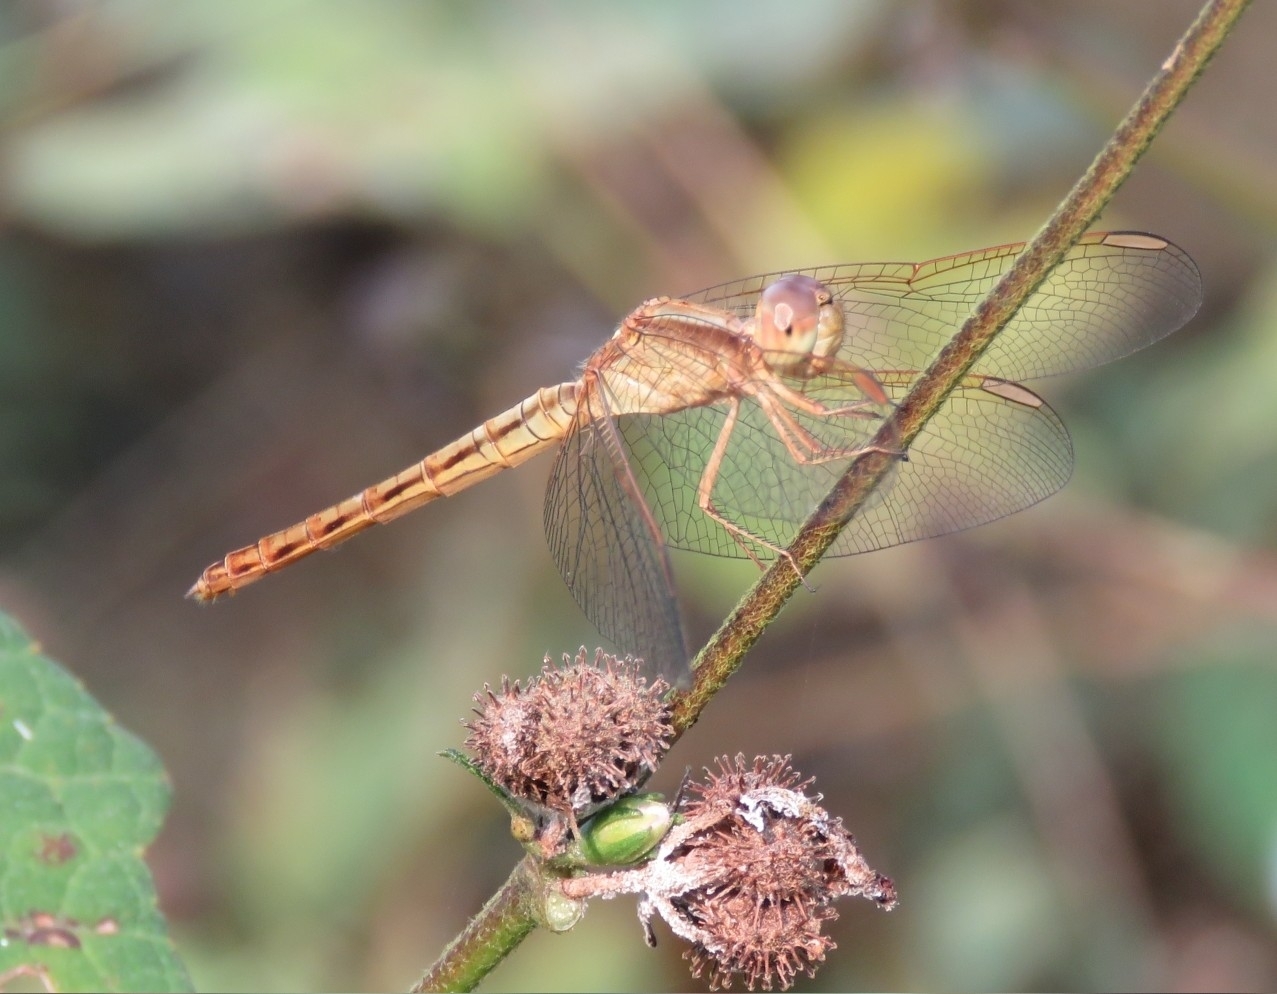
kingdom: Animalia
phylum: Arthropoda
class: Insecta
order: Odonata
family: Libellulidae
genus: Neurothemis
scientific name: Neurothemis intermedia
